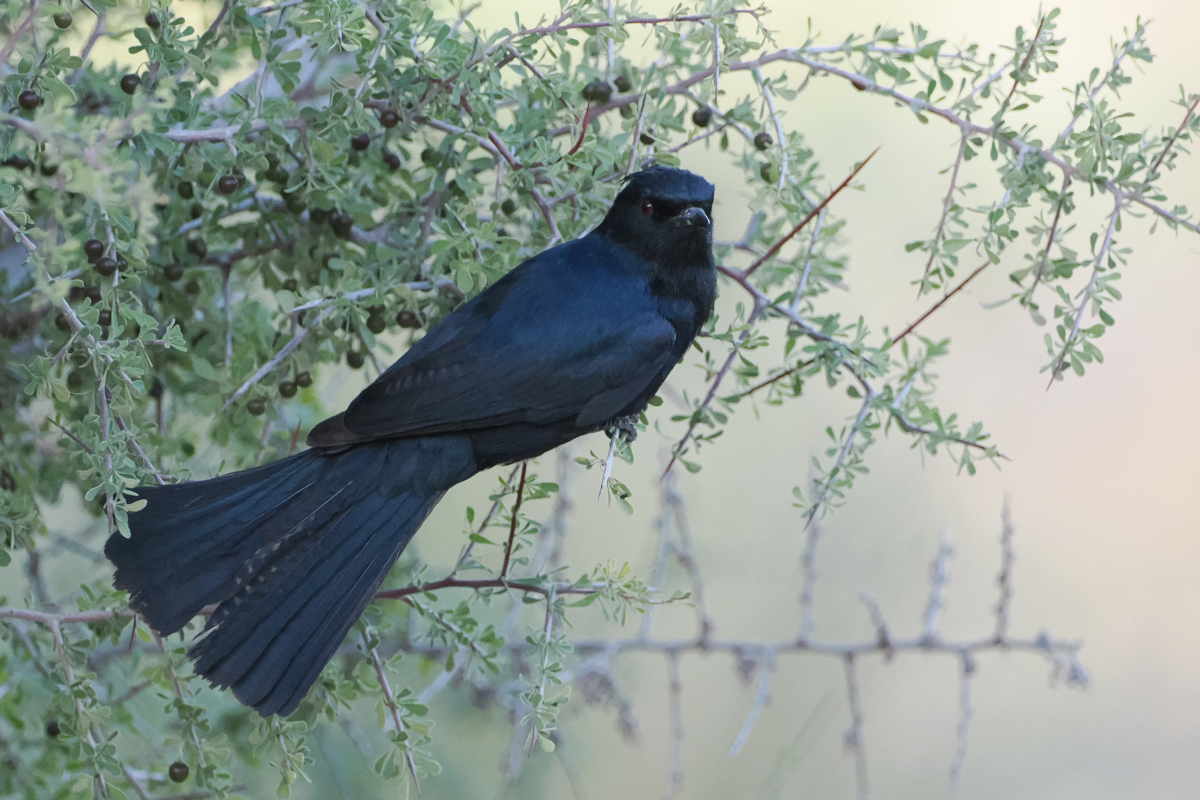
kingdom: Animalia
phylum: Chordata
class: Aves
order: Passeriformes
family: Ptilogonatidae
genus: Phainopepla
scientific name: Phainopepla nitens
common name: Phainopepla
